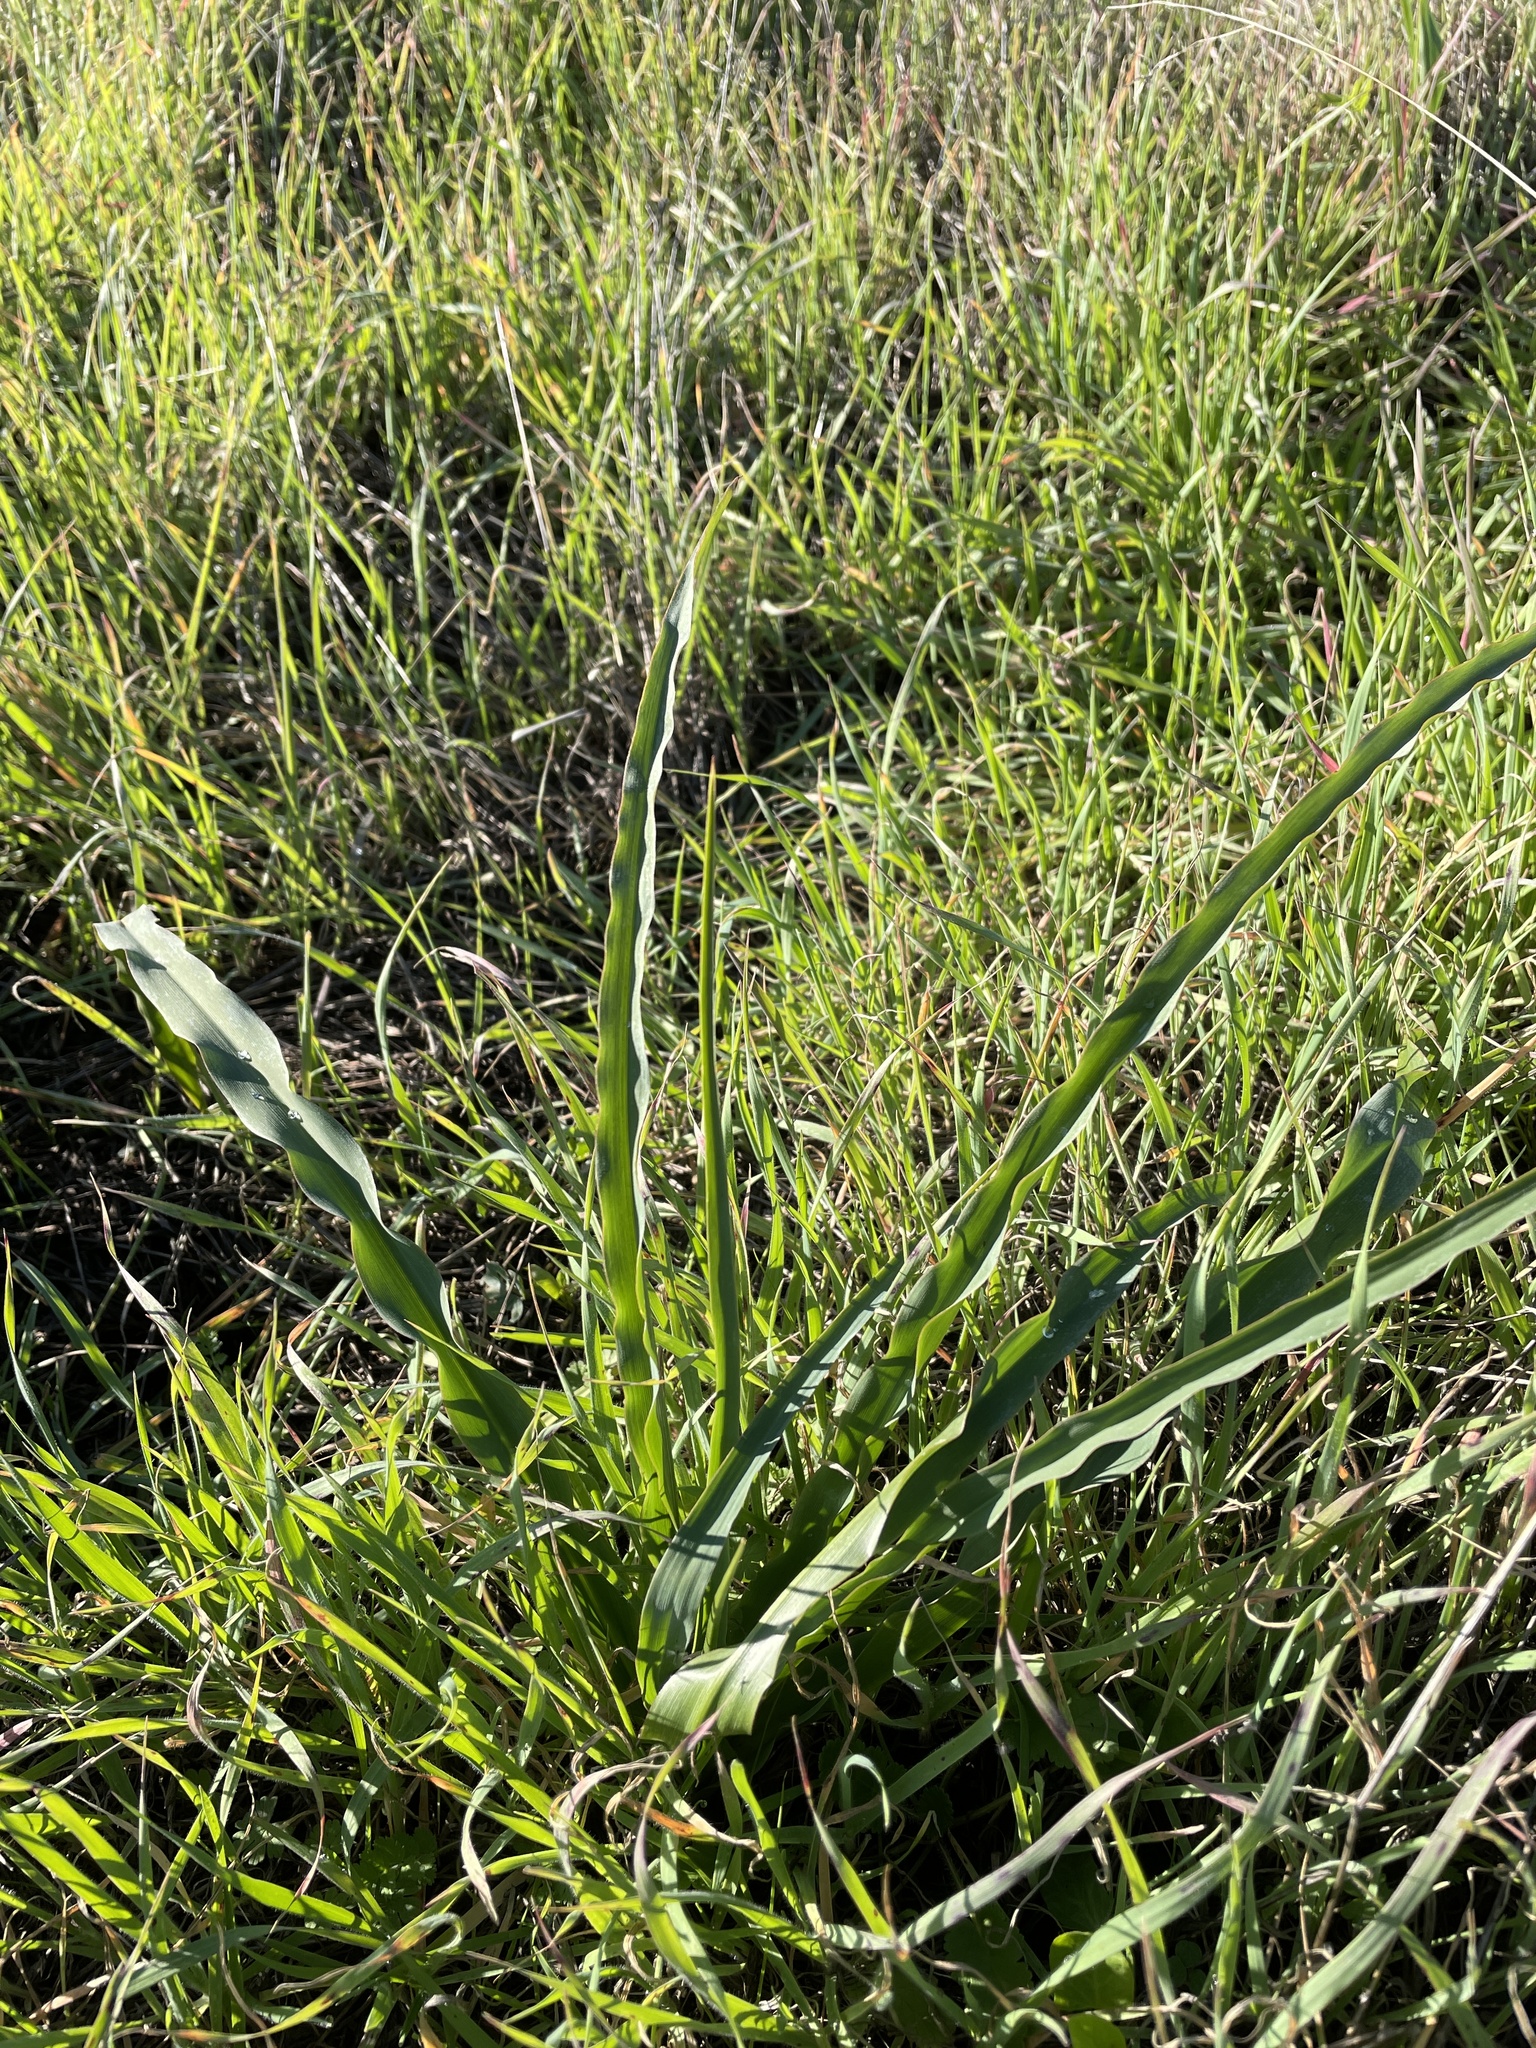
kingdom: Plantae
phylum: Tracheophyta
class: Liliopsida
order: Asparagales
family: Asparagaceae
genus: Chlorogalum
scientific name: Chlorogalum pomeridianum
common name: Amole
